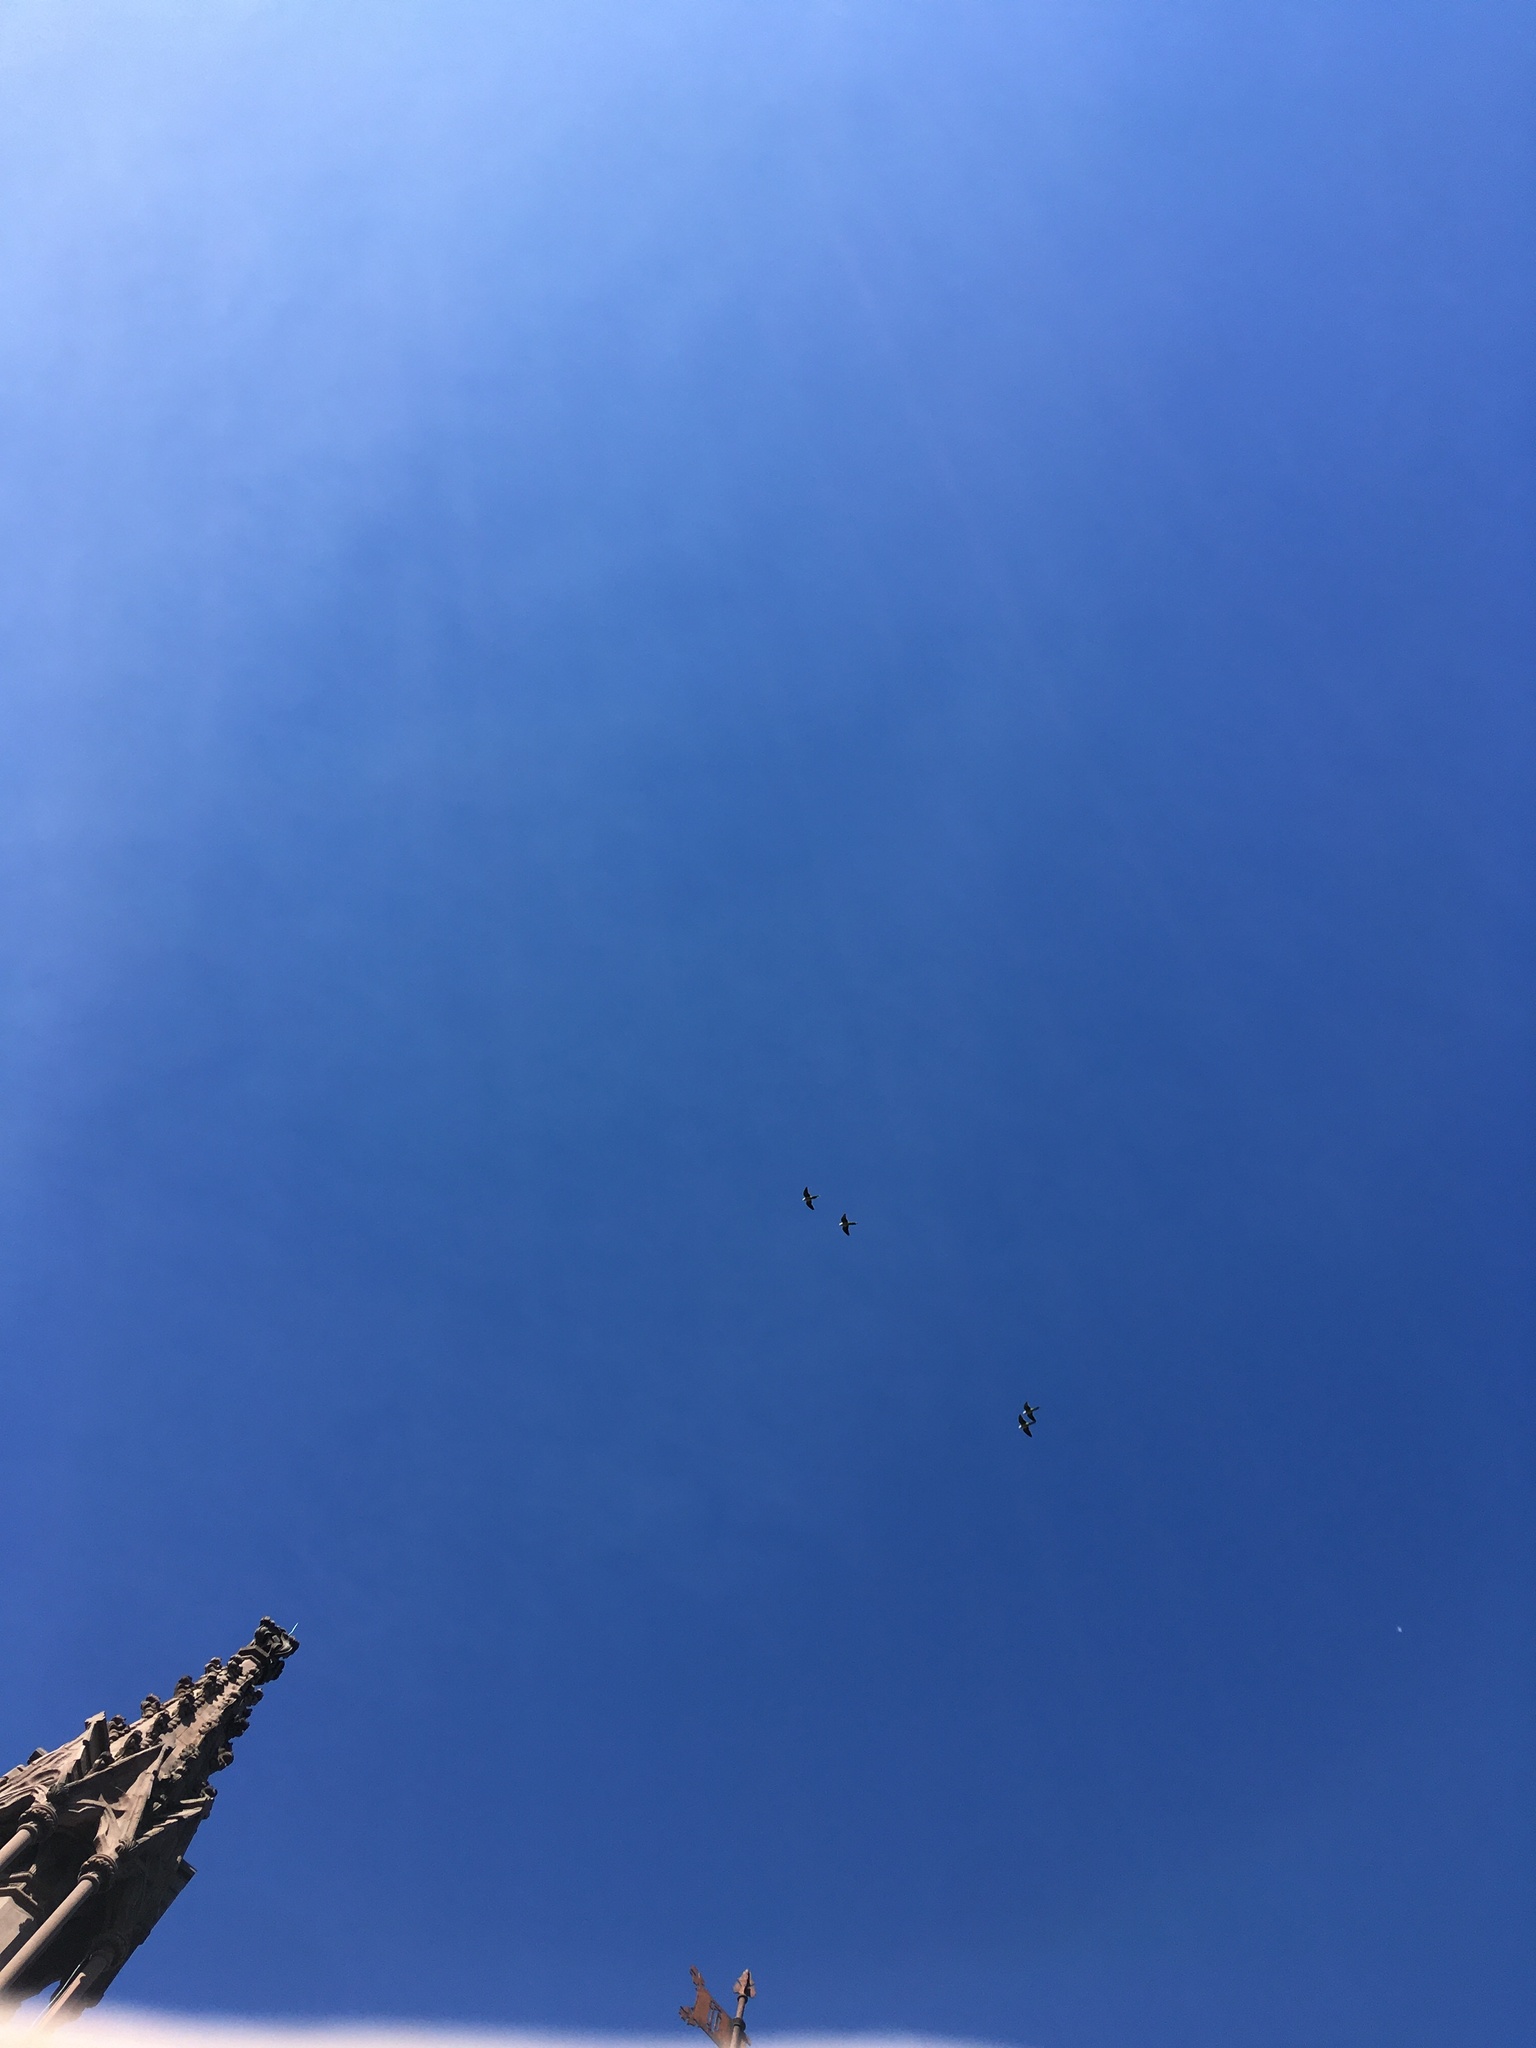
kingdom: Animalia
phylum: Chordata
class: Aves
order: Psittaciformes
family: Psittacidae
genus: Myiopsitta
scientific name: Myiopsitta monachus
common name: Monk parakeet
